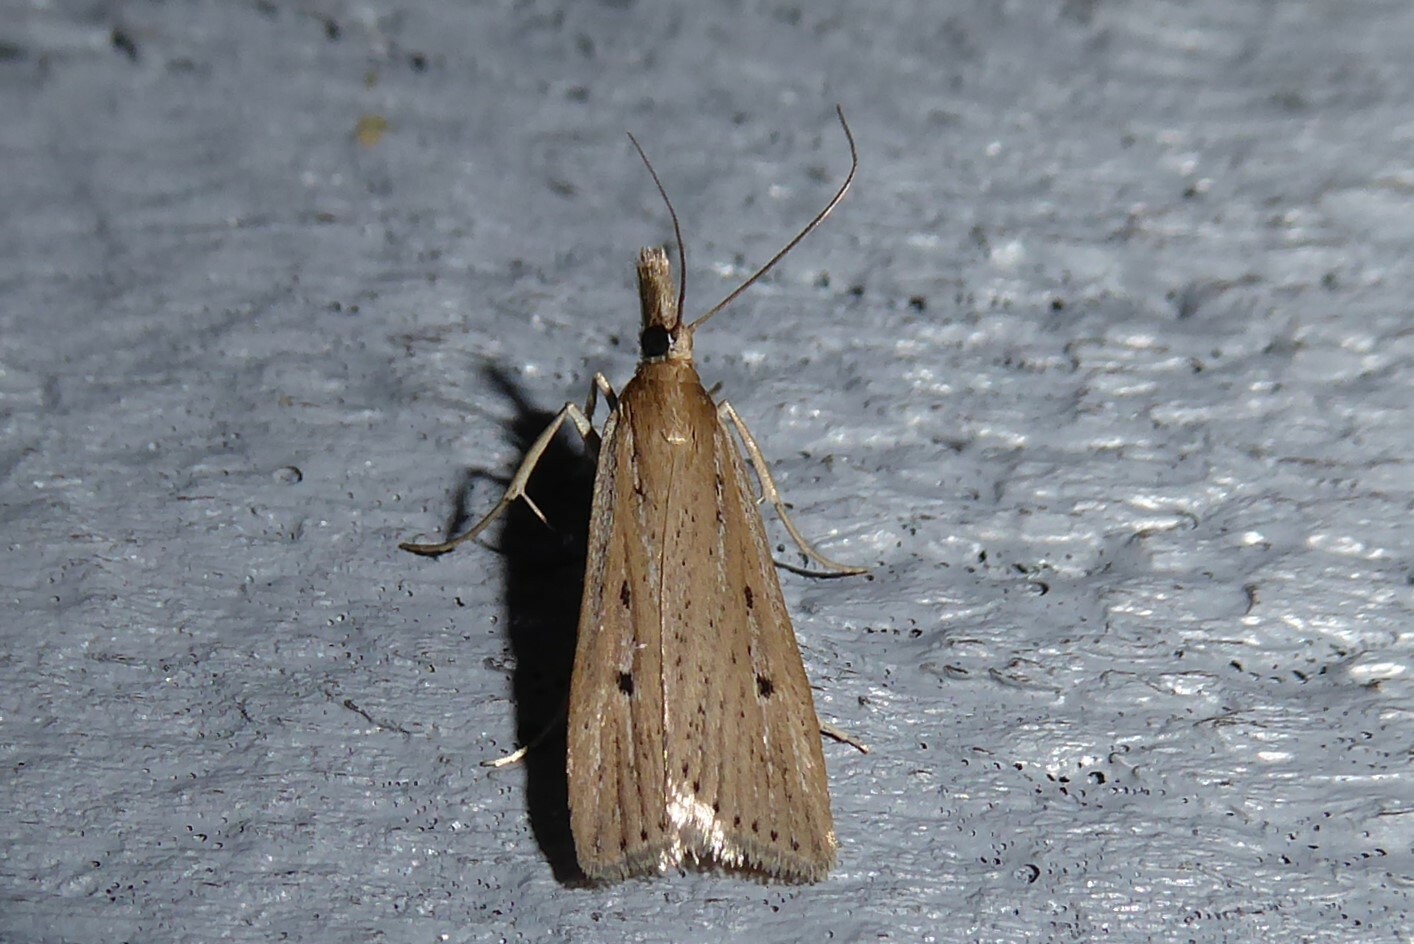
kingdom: Animalia
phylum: Arthropoda
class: Insecta
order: Lepidoptera
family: Crambidae
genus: Eudonia
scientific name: Eudonia sabulosella
